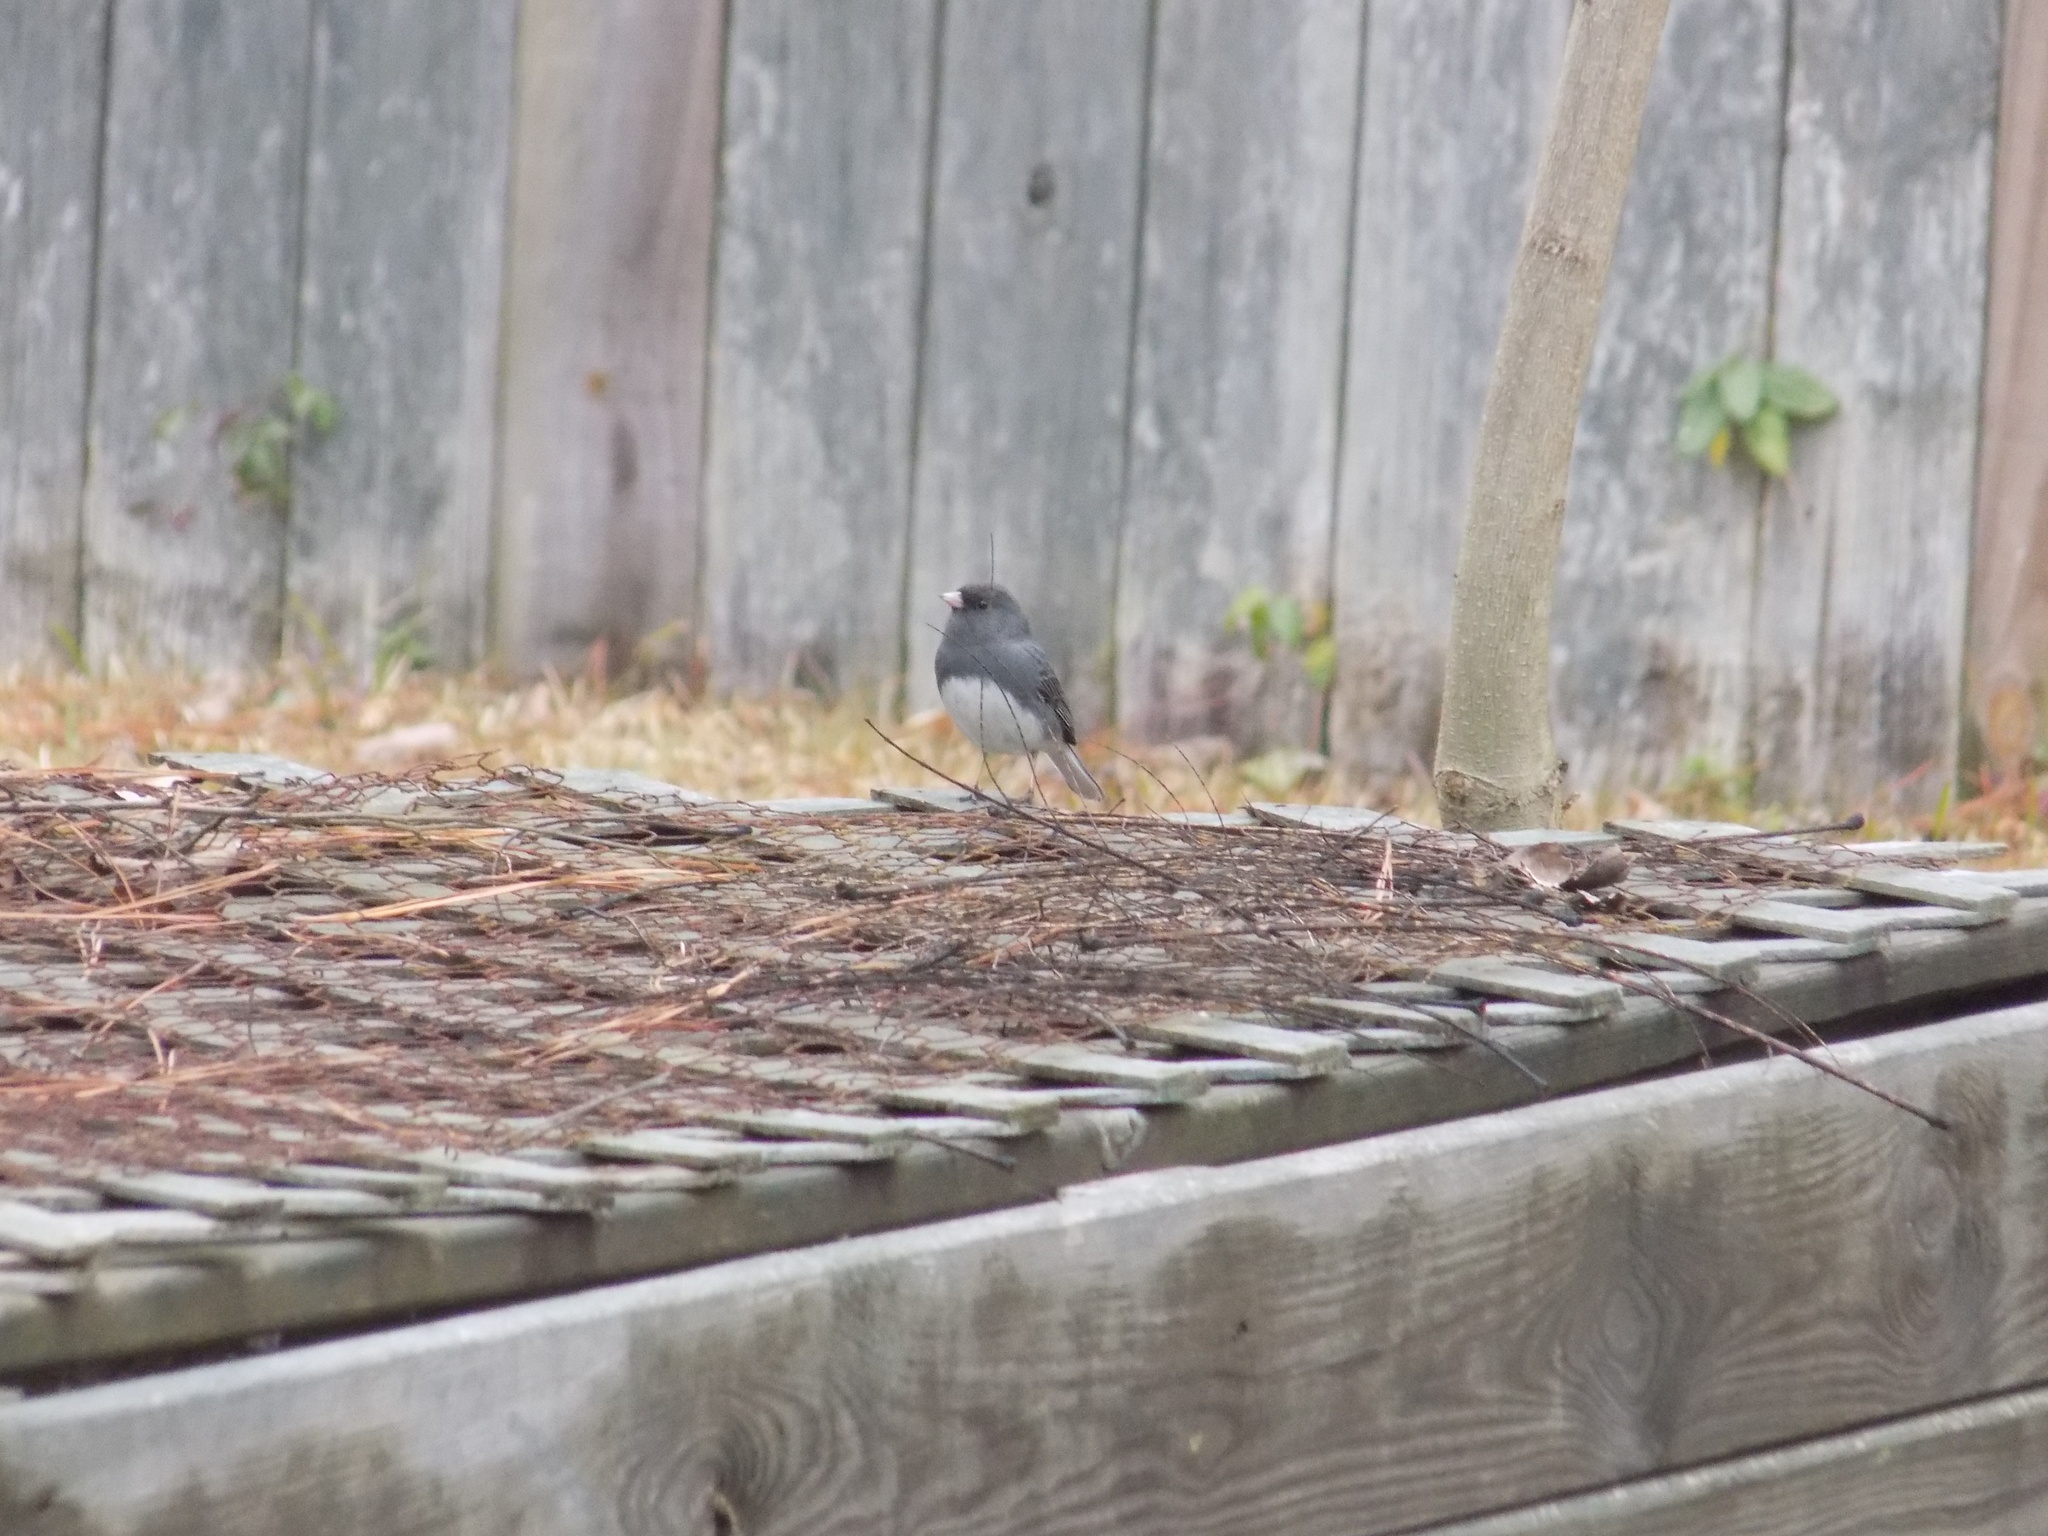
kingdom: Animalia
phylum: Chordata
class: Aves
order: Passeriformes
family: Passerellidae
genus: Junco
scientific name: Junco hyemalis
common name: Dark-eyed junco
